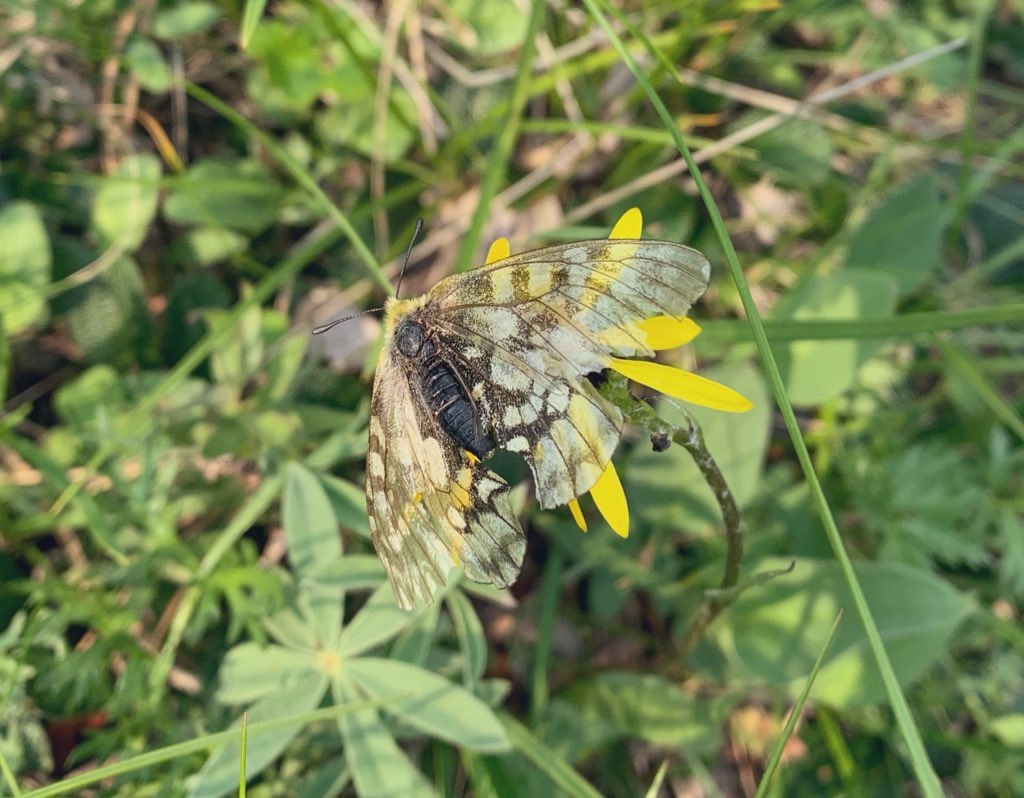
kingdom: Animalia
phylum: Arthropoda
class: Insecta
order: Lepidoptera
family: Papilionidae
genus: Parnassius
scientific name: Parnassius eversmanni
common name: Eversmann's parnassian
